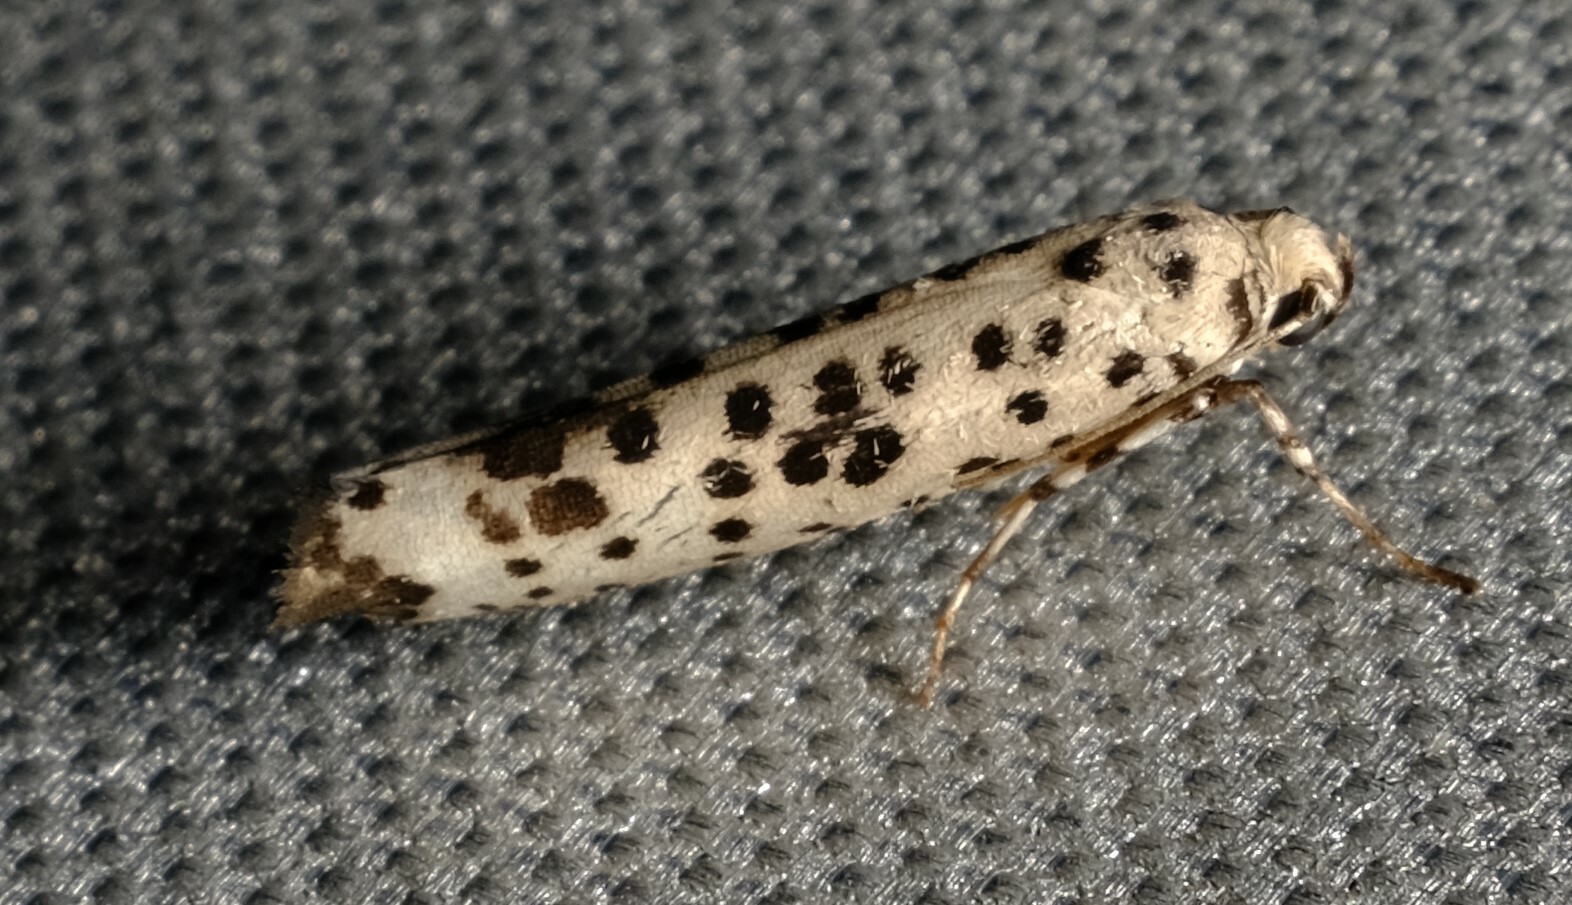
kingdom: Animalia
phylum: Arthropoda
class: Insecta
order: Lepidoptera
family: Yponomeutidae
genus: Yponomeuta
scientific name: Yponomeuta pustulellus
